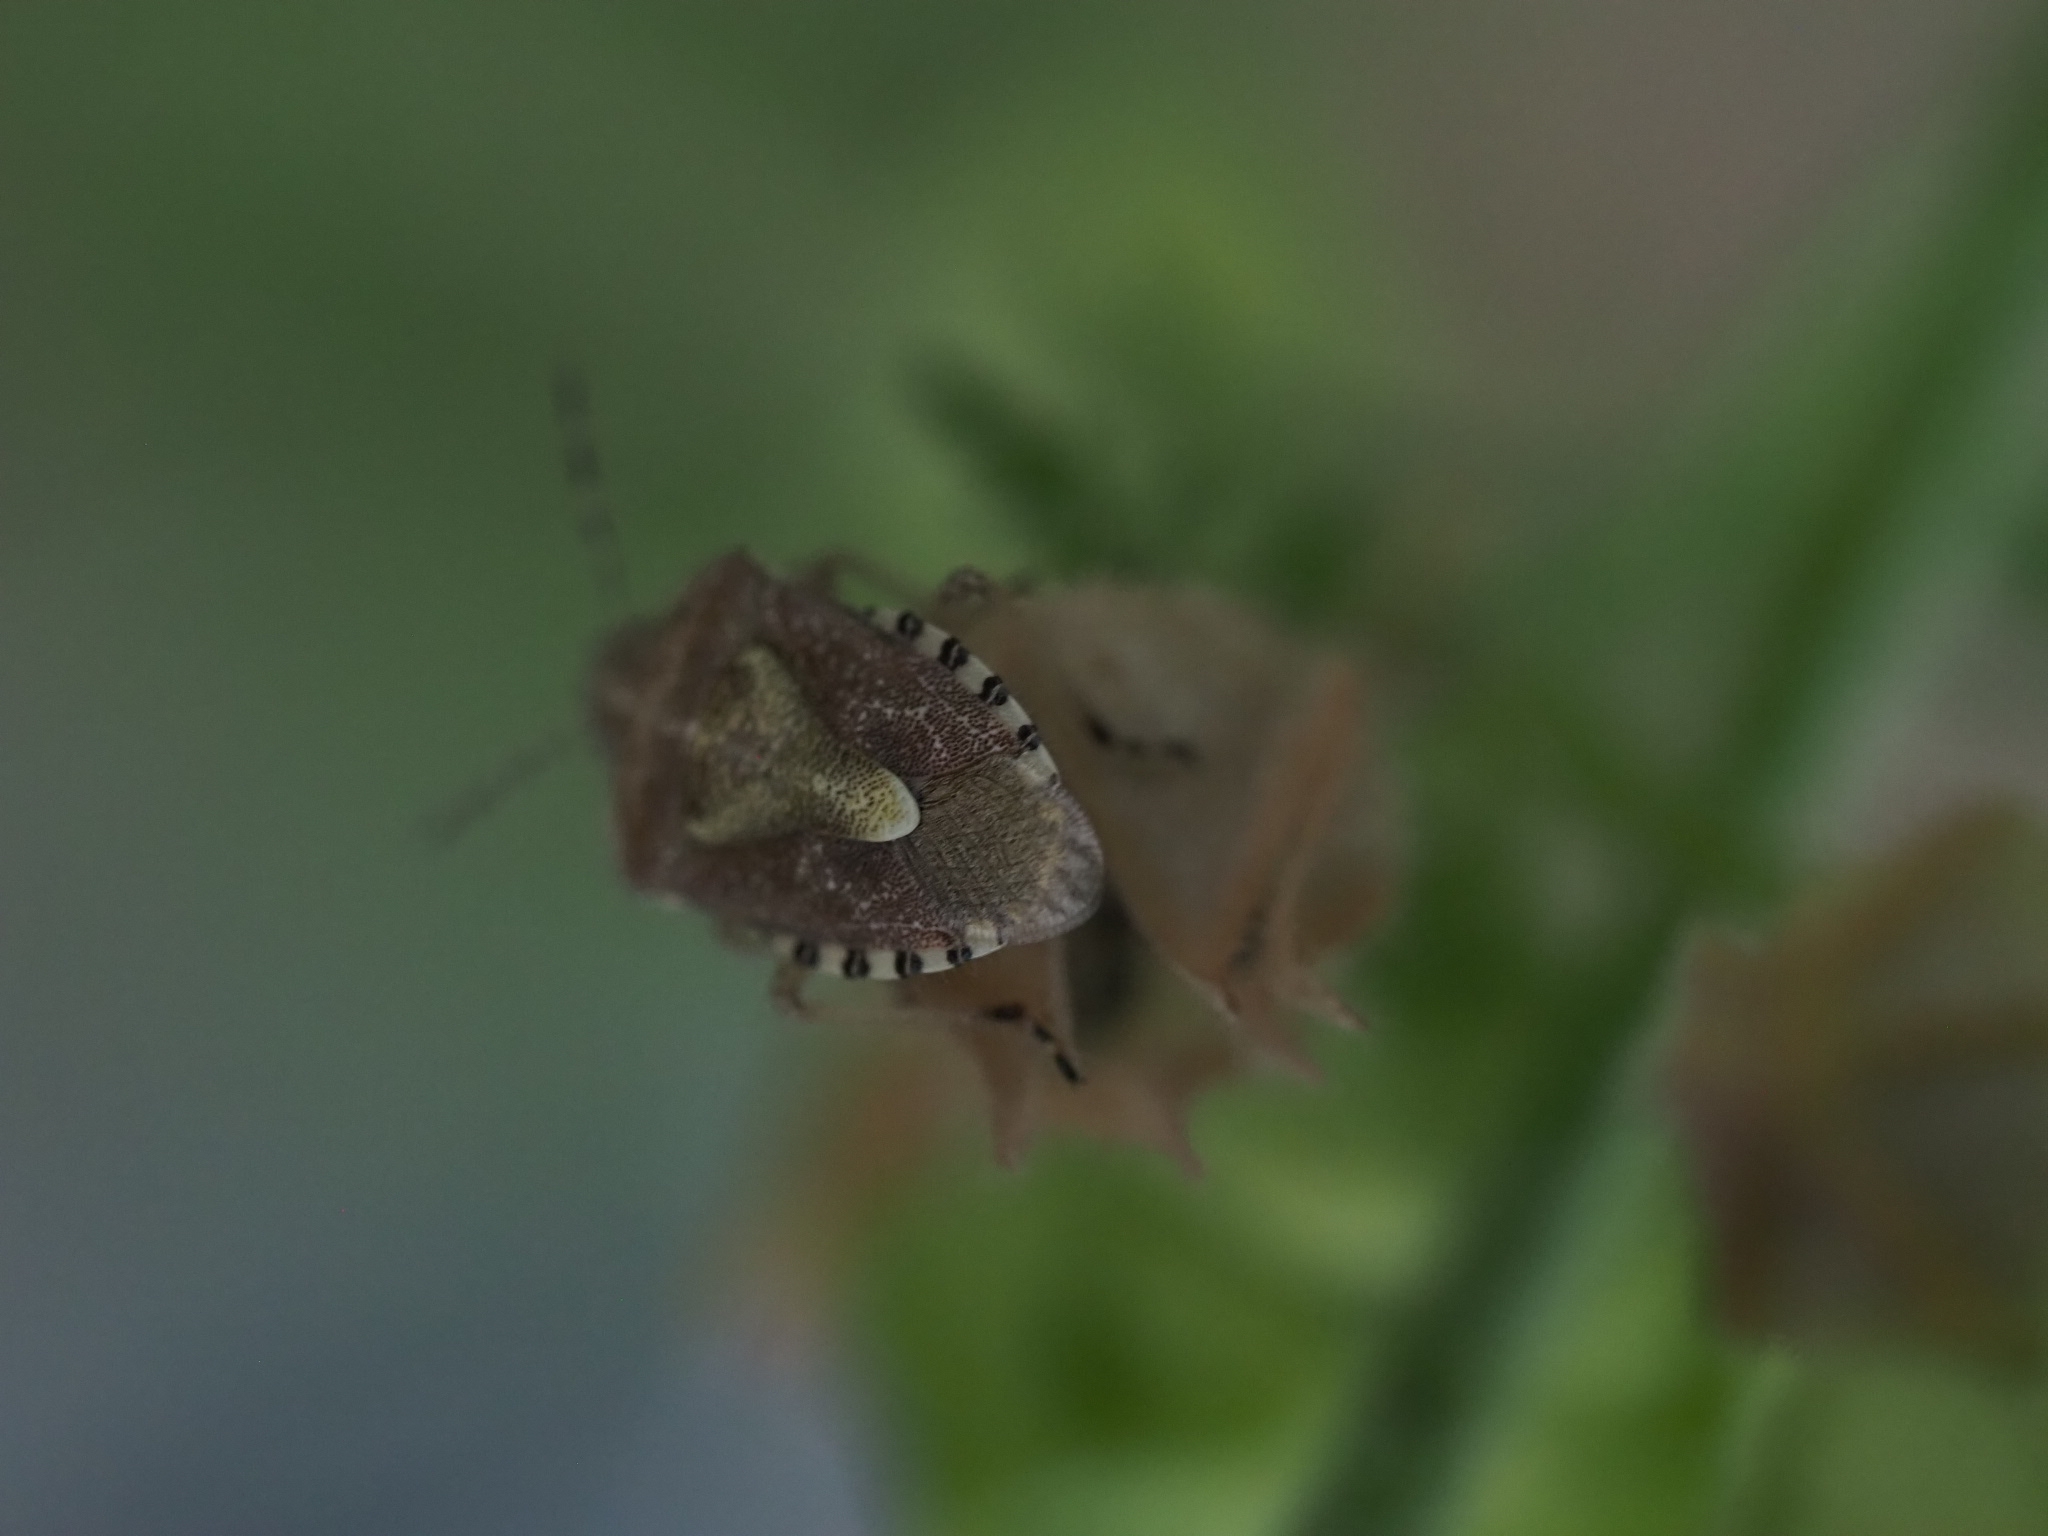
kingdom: Animalia
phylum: Arthropoda
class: Insecta
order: Hemiptera
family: Pentatomidae
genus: Dolycoris
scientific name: Dolycoris baccarum
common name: Sloe bug
